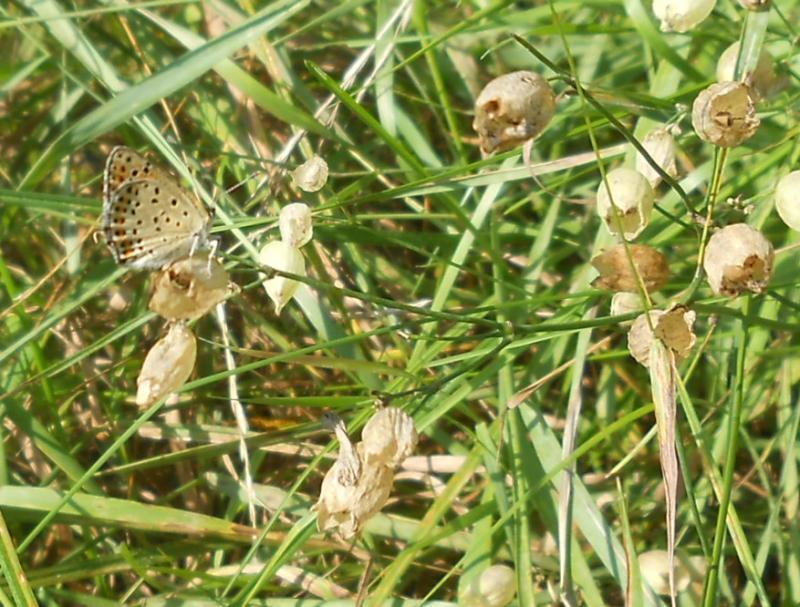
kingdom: Animalia
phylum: Arthropoda
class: Insecta
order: Lepidoptera
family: Lycaenidae
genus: Loweia
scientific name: Loweia tityrus
